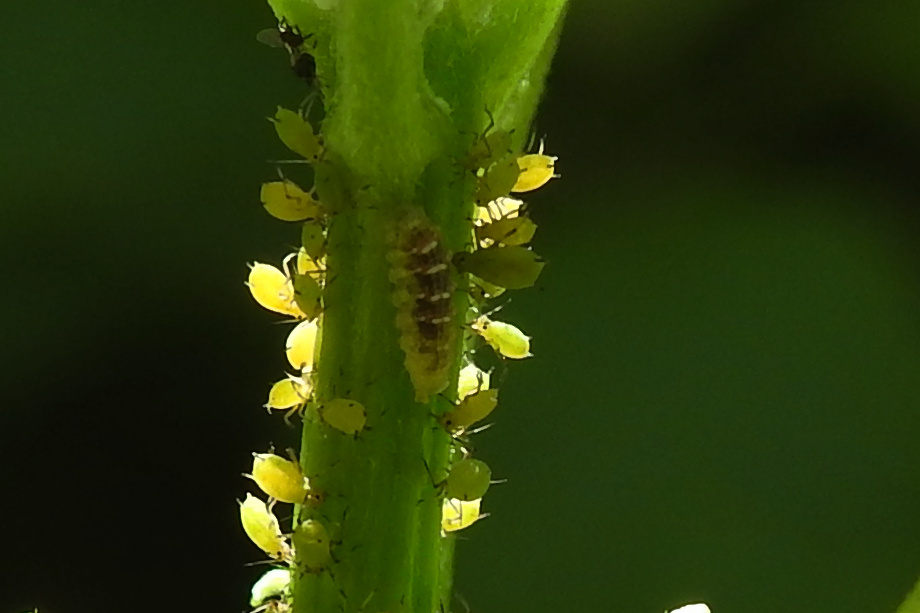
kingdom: Animalia
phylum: Arthropoda
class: Insecta
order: Diptera
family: Syrphidae
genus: Eupeodes
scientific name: Eupeodes
